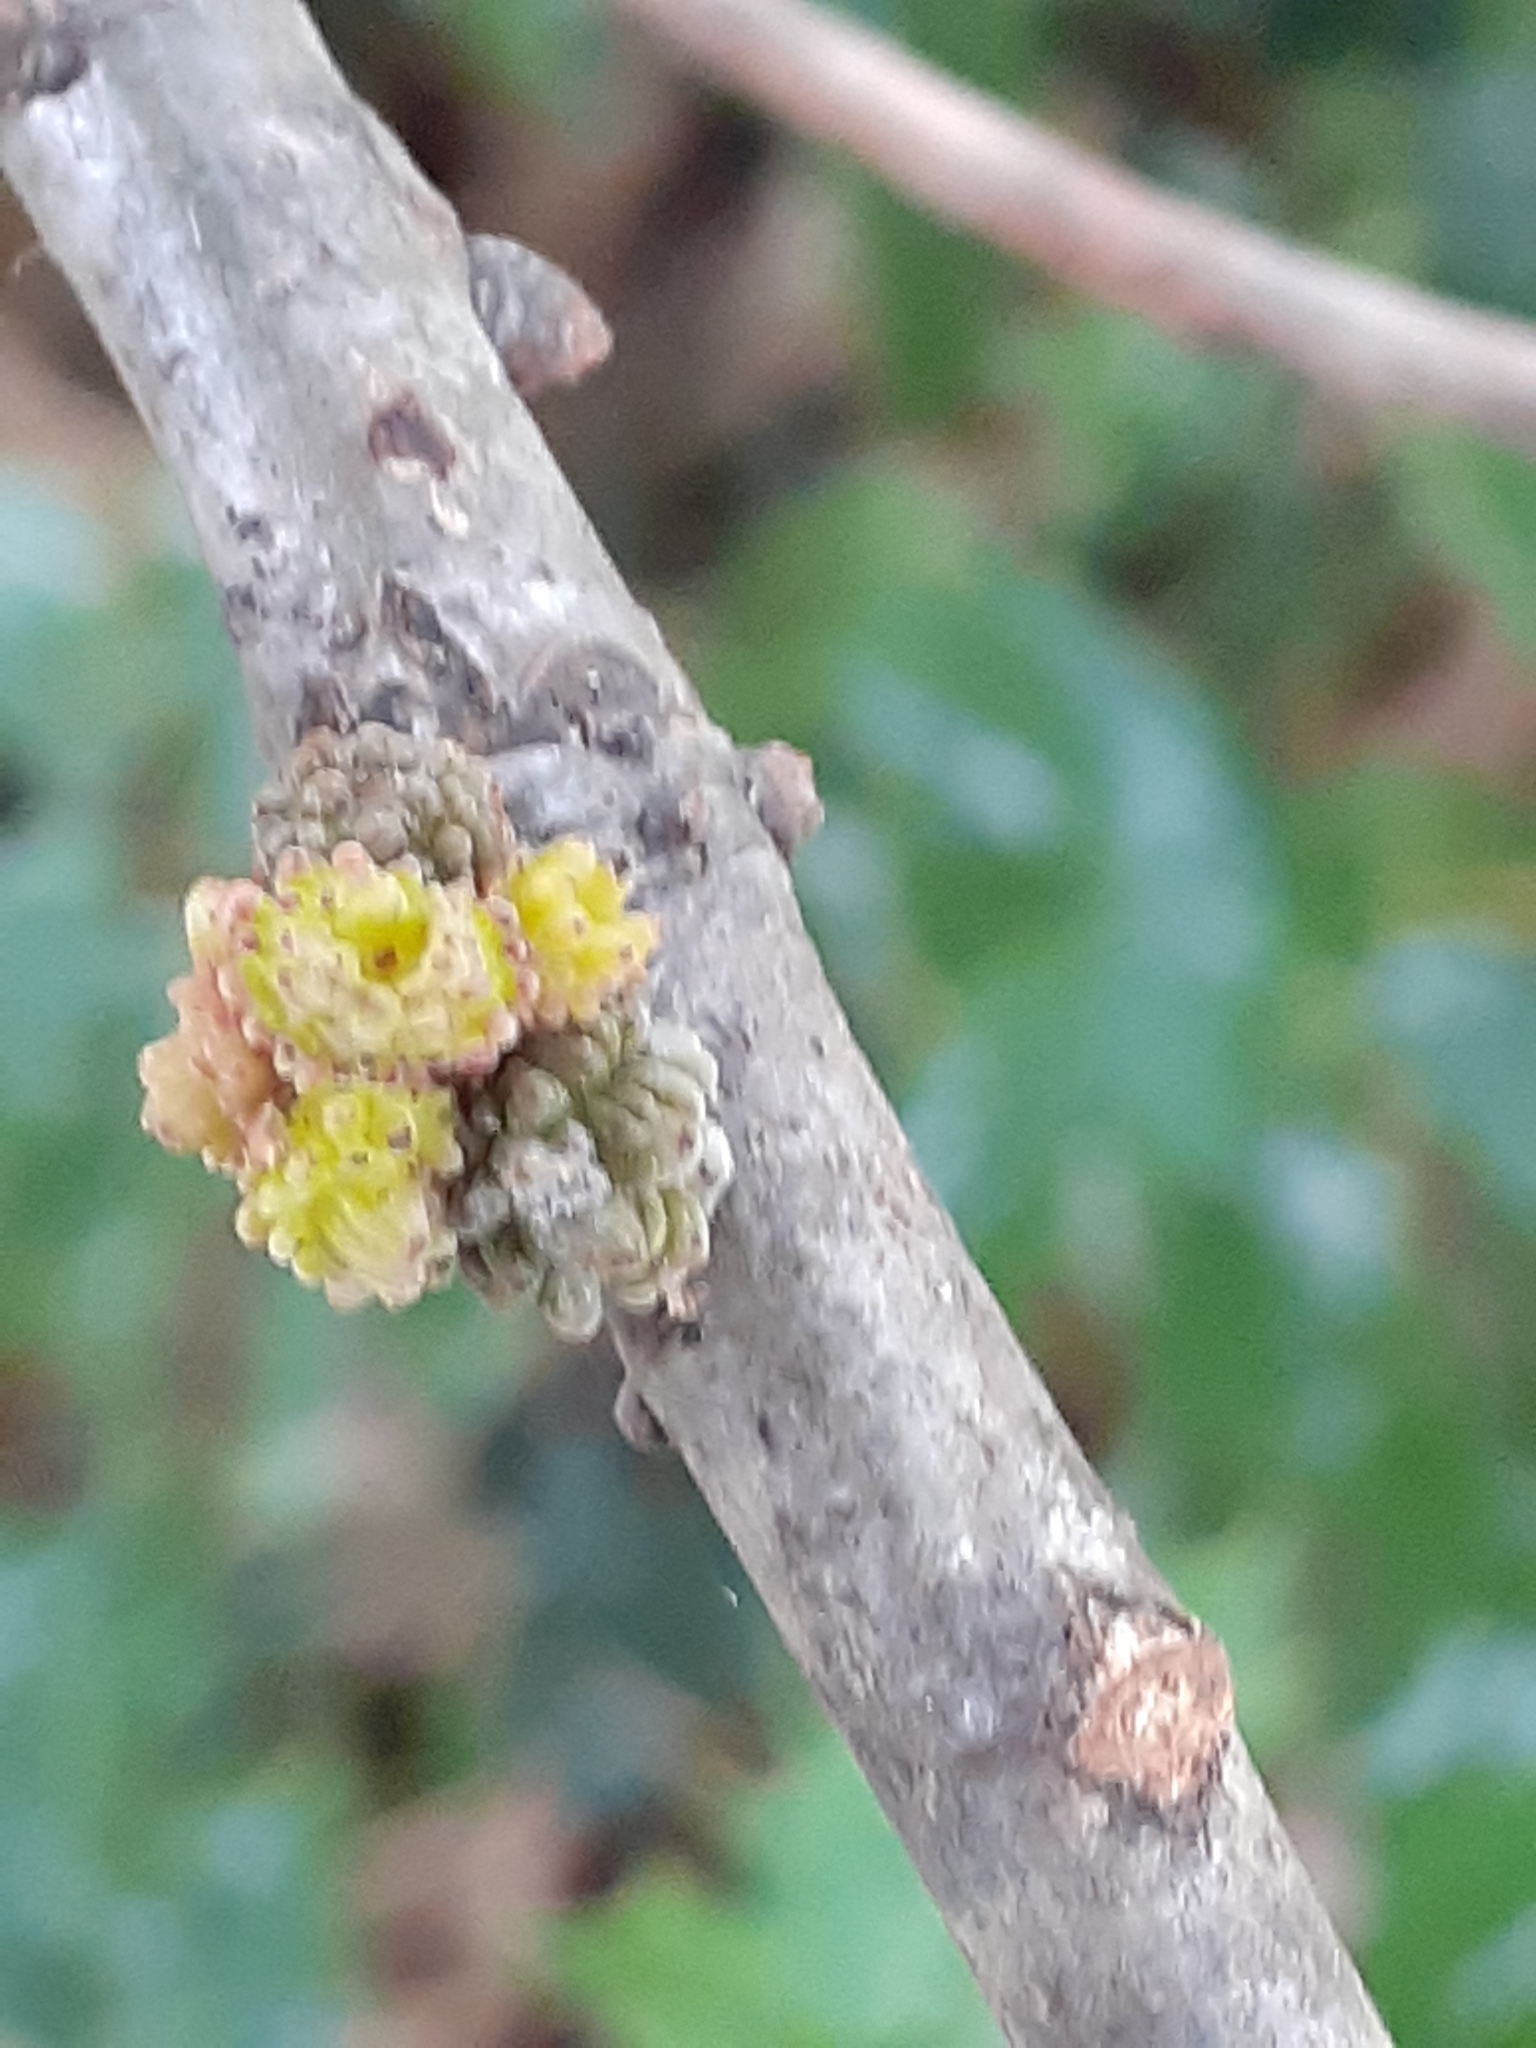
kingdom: Animalia
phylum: Arthropoda
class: Insecta
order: Hymenoptera
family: Cynipidae
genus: Andricus
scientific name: Andricus gemmeus
